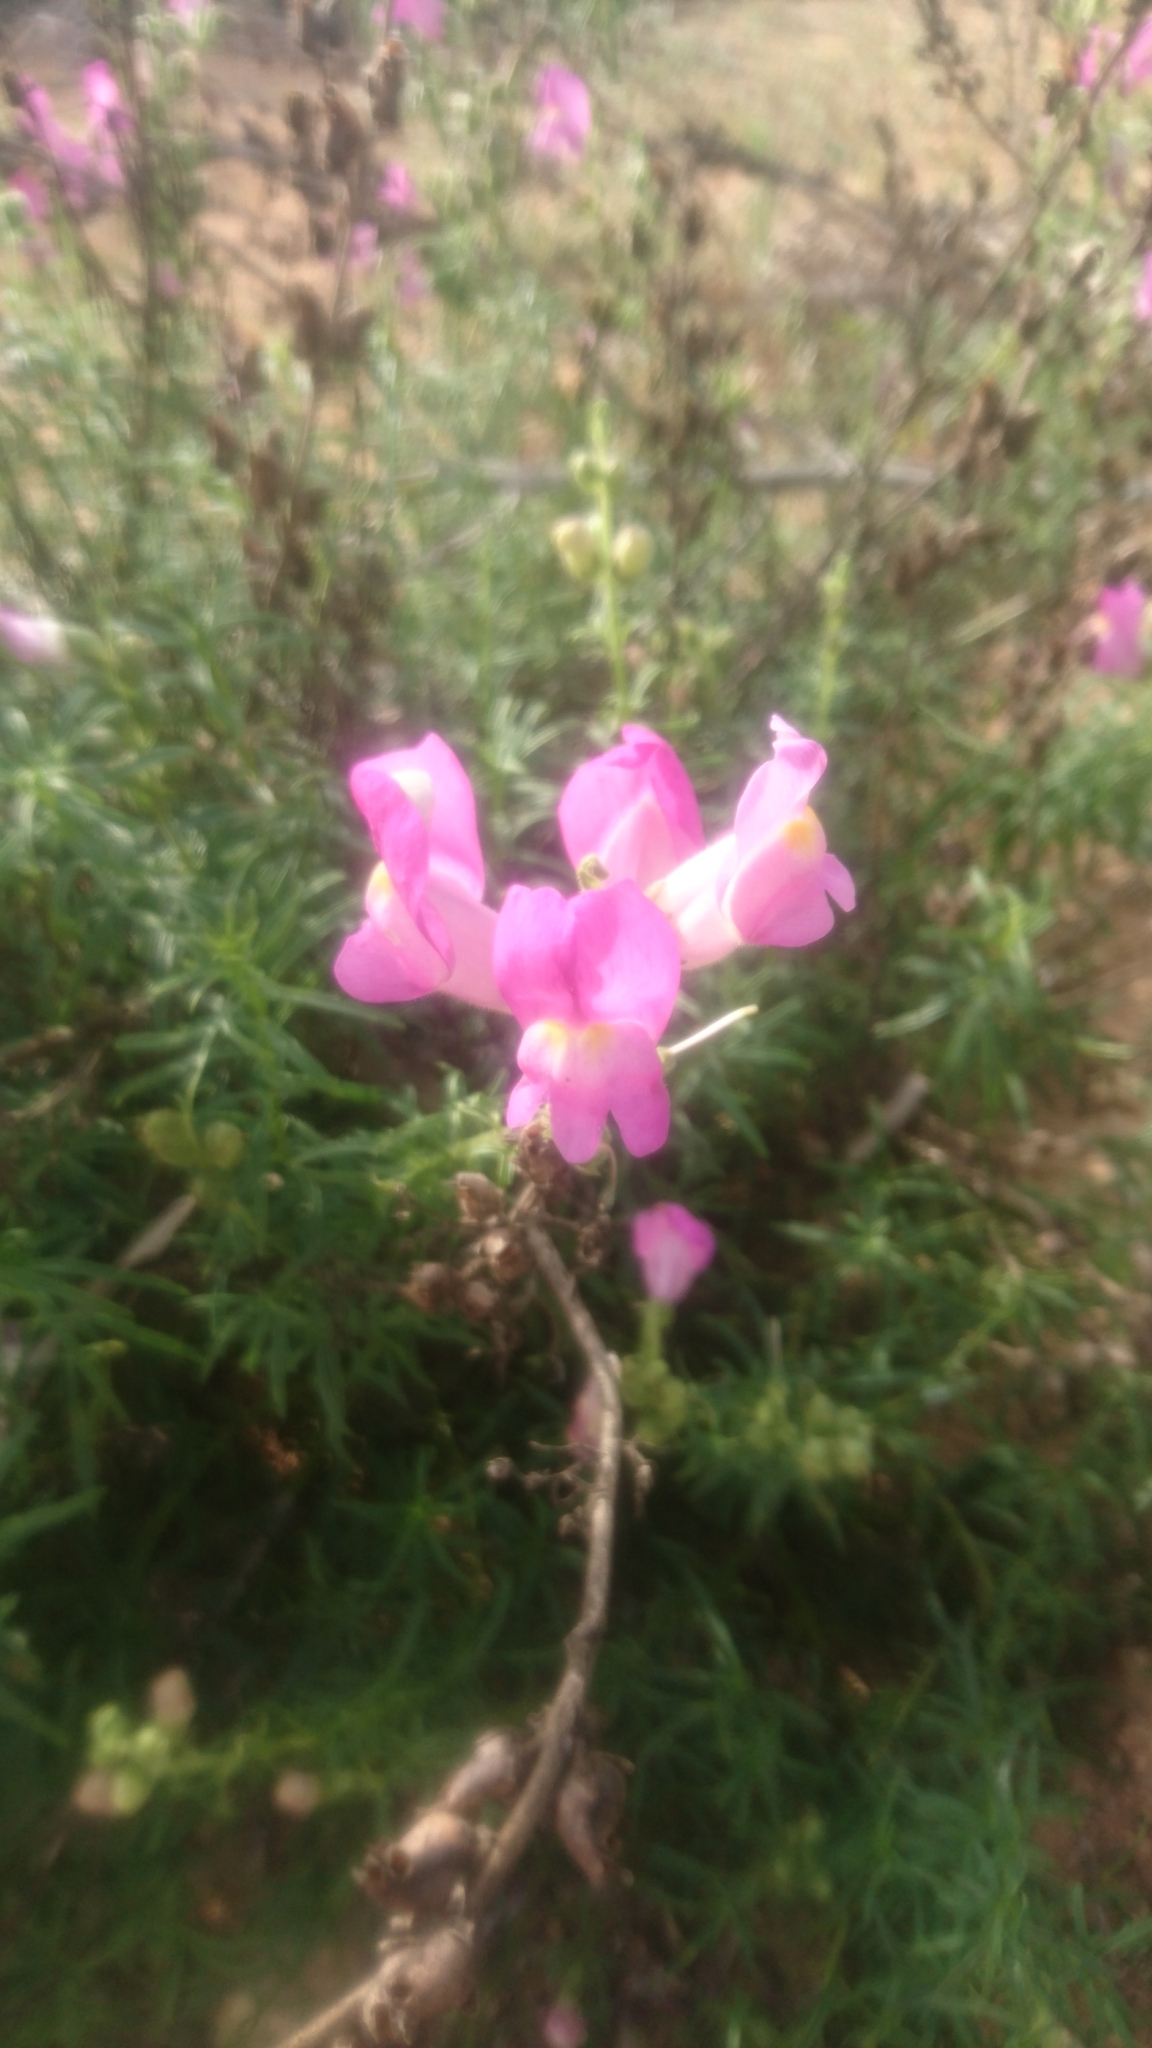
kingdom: Plantae
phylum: Tracheophyta
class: Magnoliopsida
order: Lamiales
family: Plantaginaceae
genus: Antirrhinum
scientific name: Antirrhinum tortuosum
